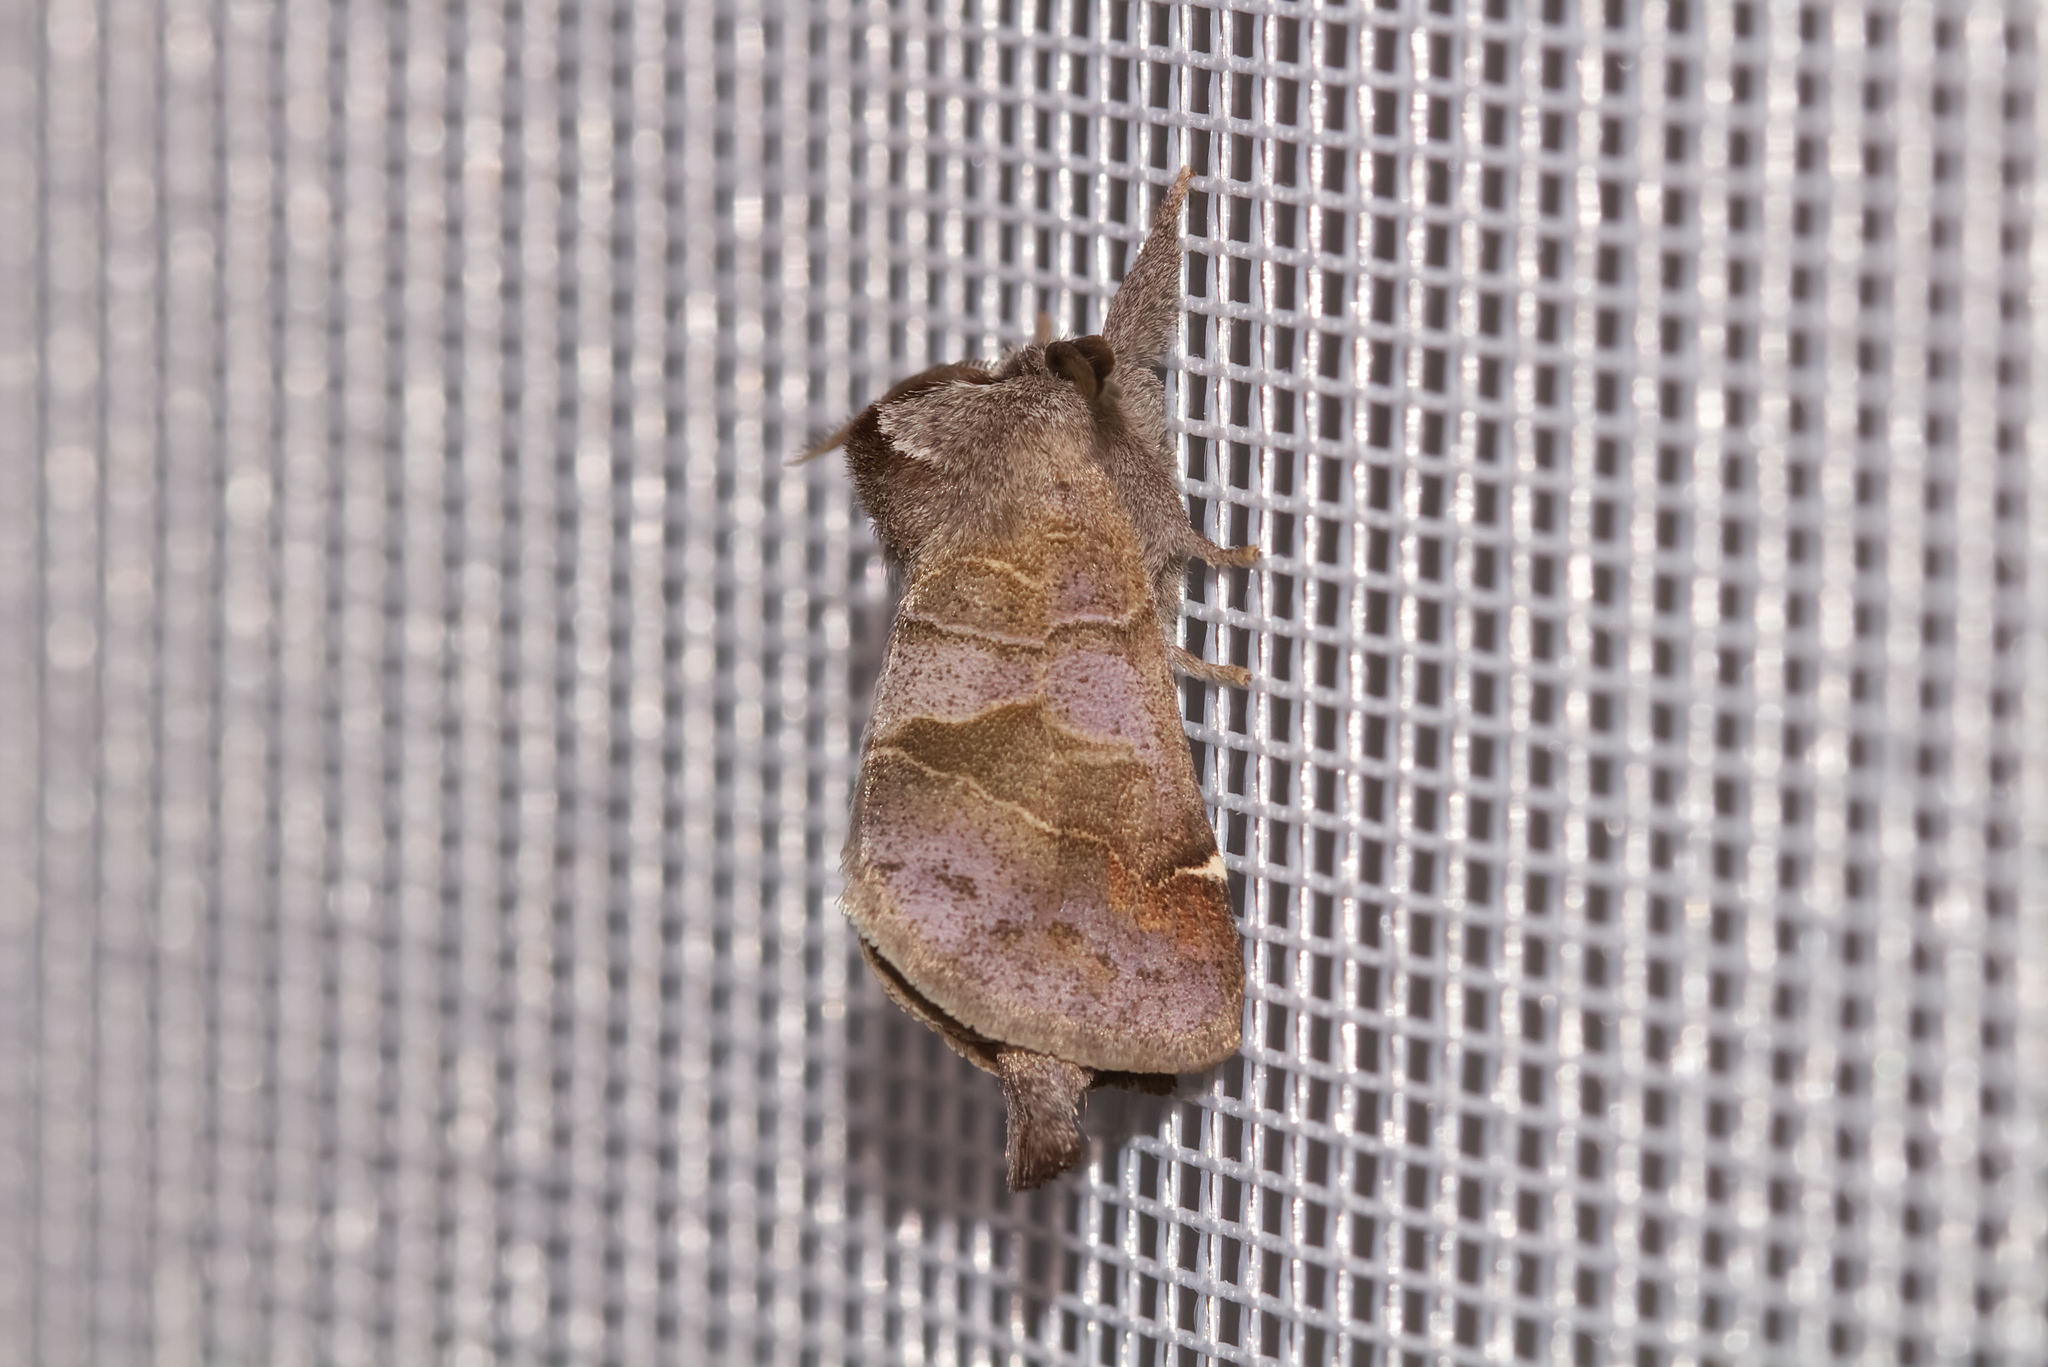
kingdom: Animalia
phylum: Arthropoda
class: Insecta
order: Lepidoptera
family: Notodontidae
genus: Clostera
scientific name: Clostera pigra
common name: Small chocolate-tip
